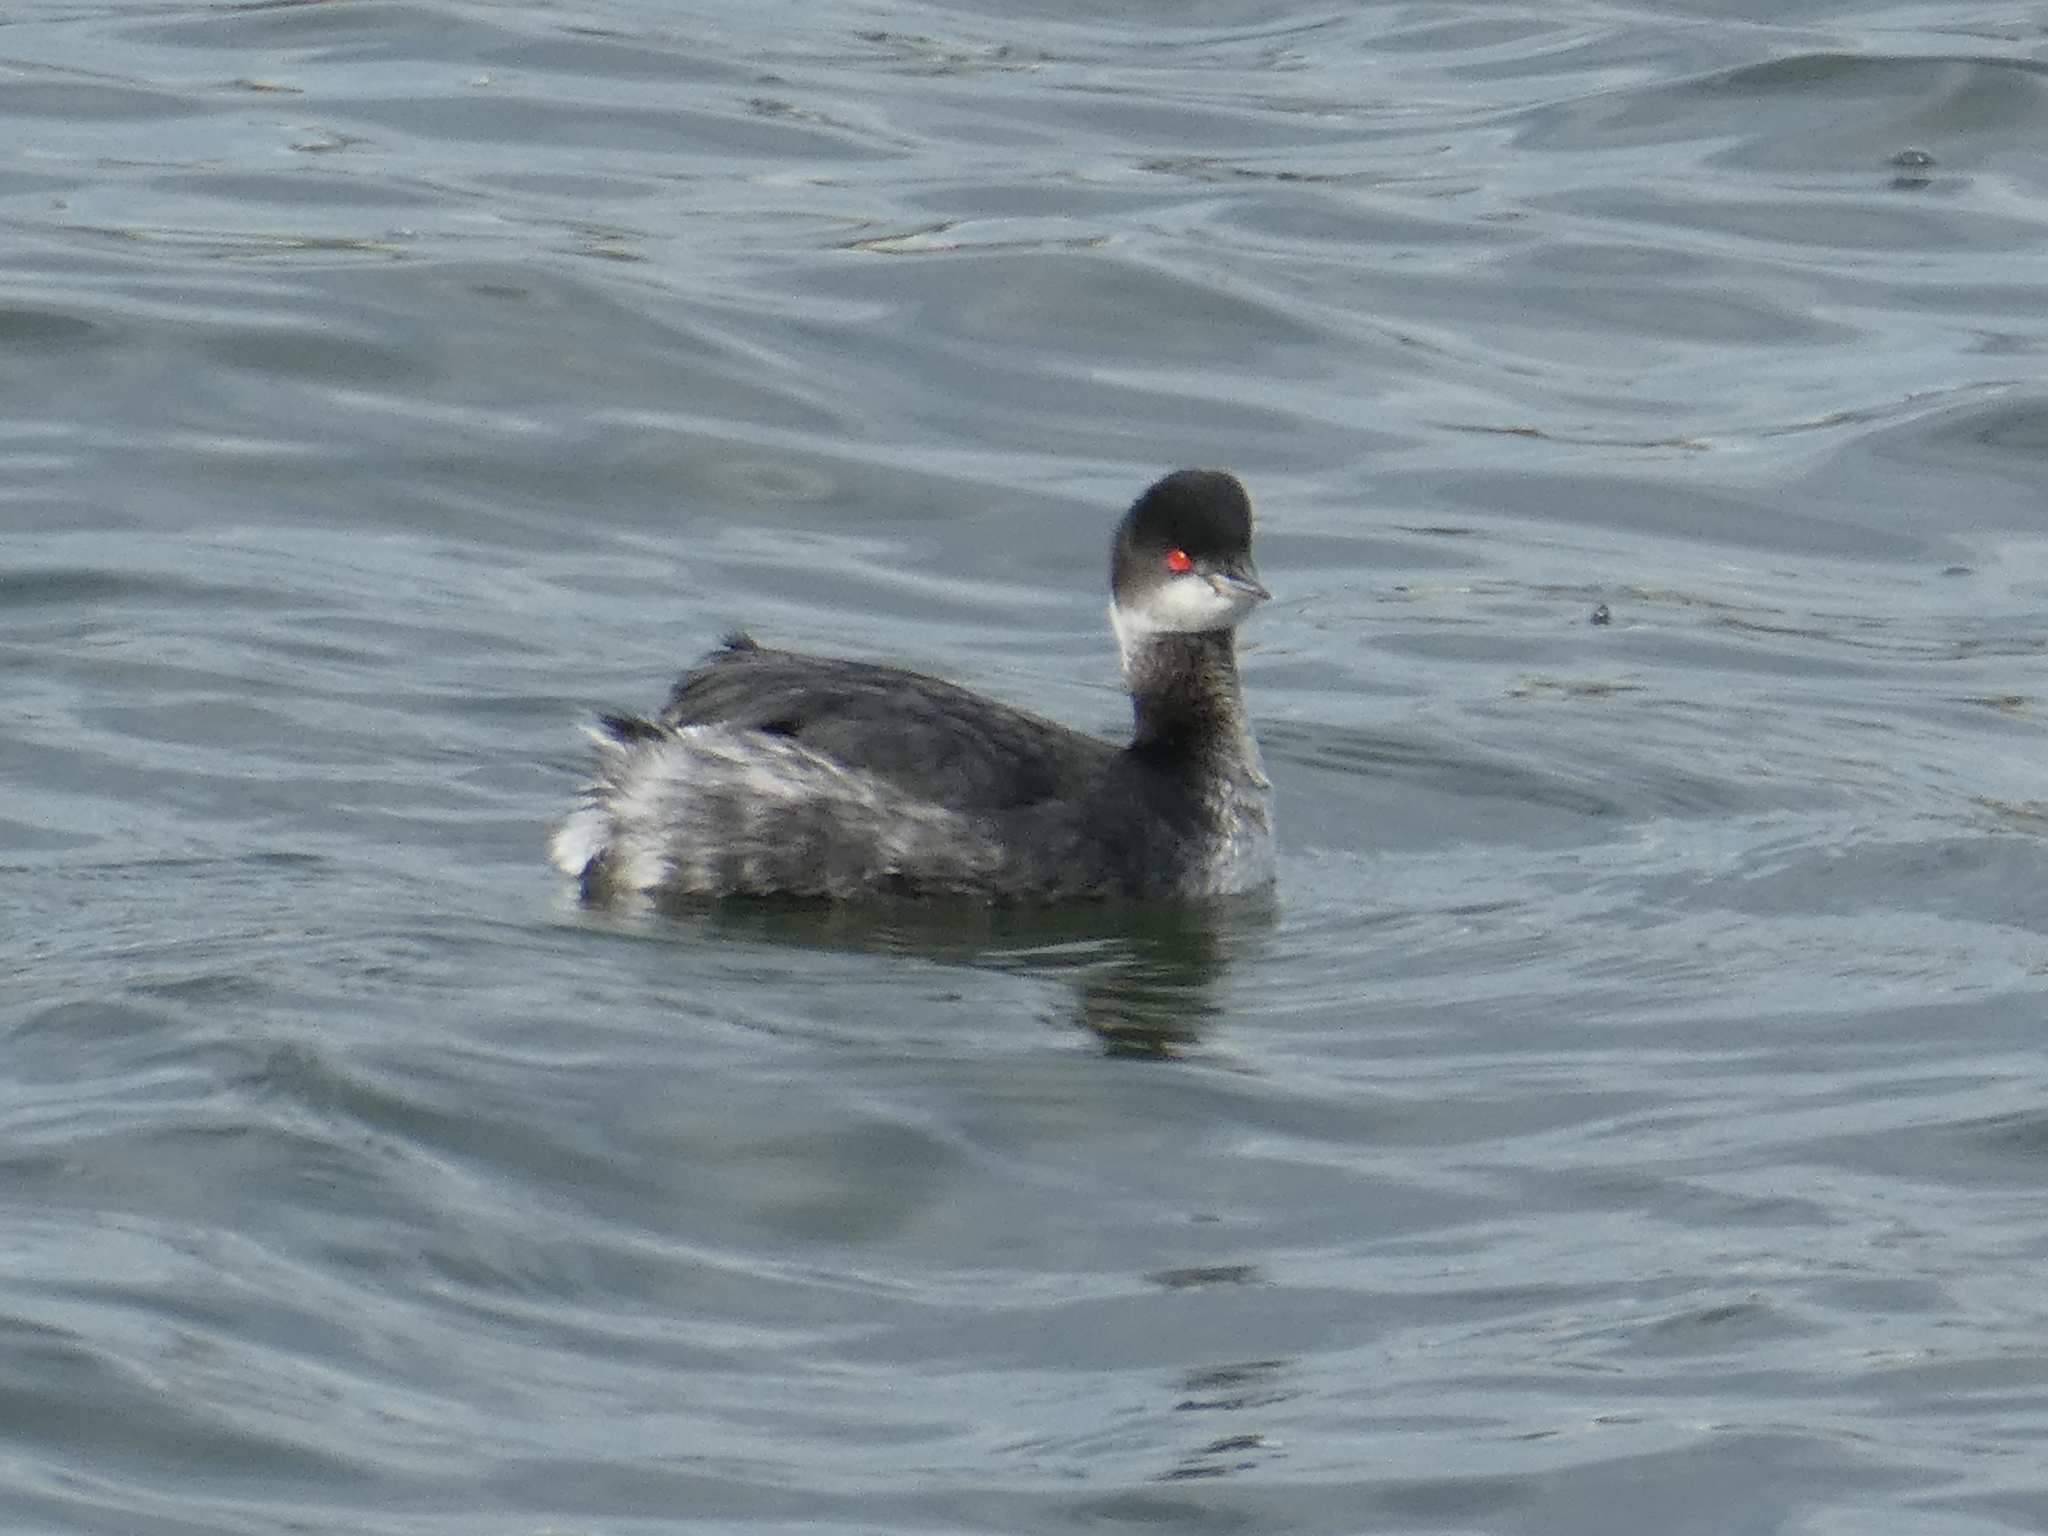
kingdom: Animalia
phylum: Chordata
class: Aves
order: Podicipediformes
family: Podicipedidae
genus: Podiceps
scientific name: Podiceps nigricollis
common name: Black-necked grebe
